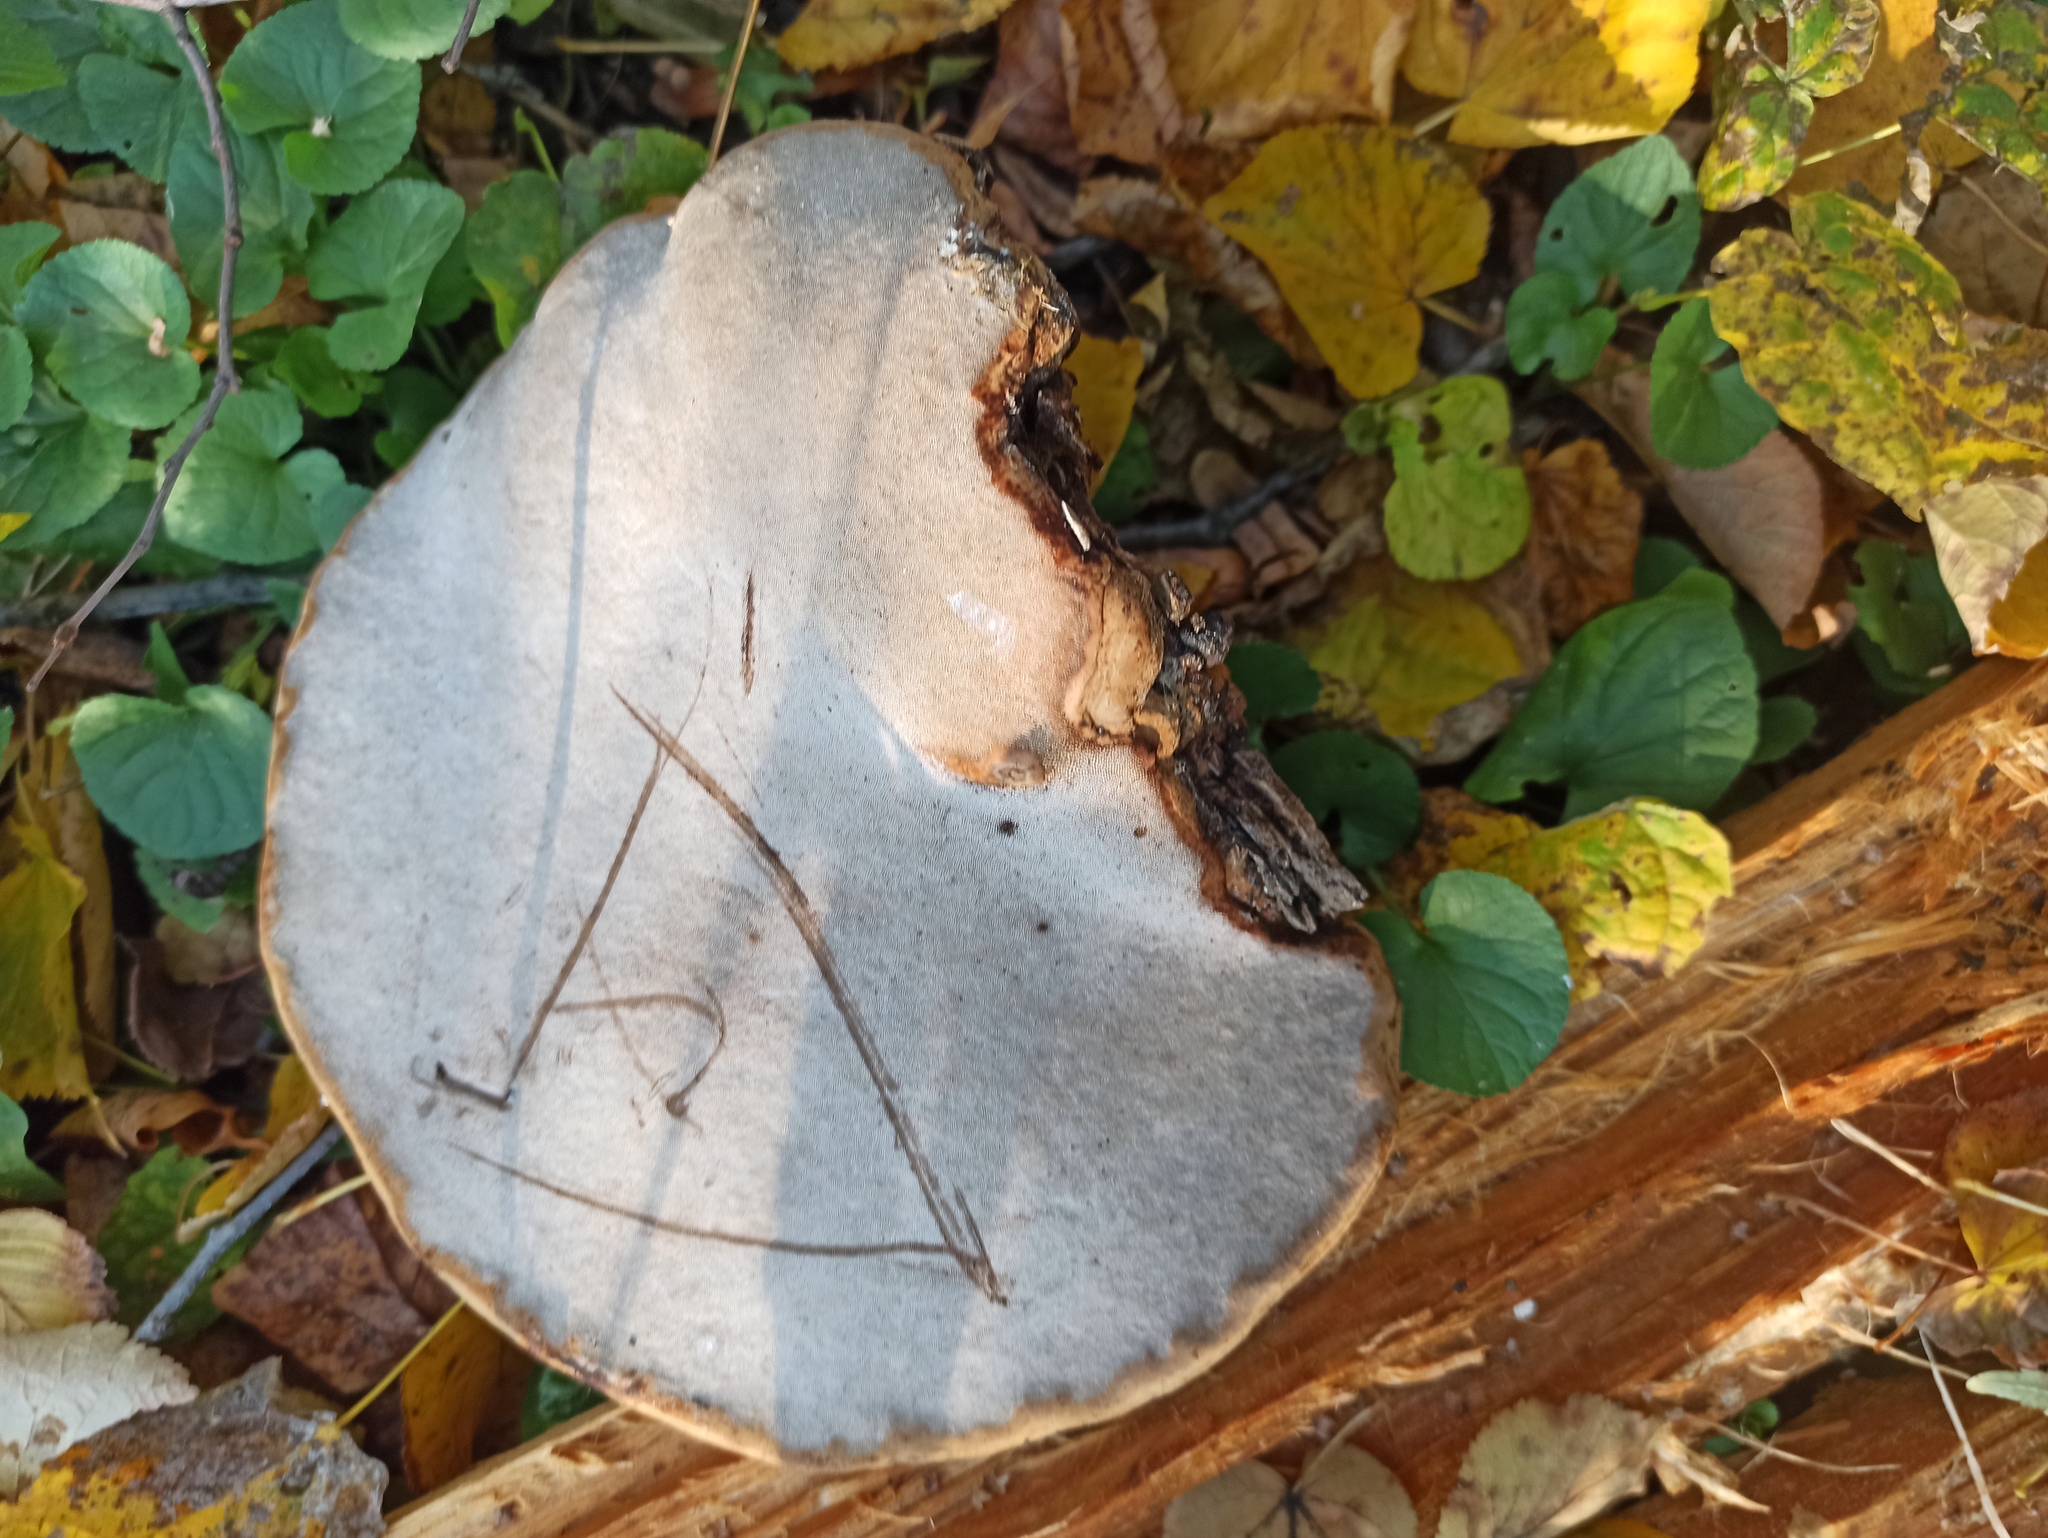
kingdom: Fungi
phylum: Basidiomycota
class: Agaricomycetes
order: Polyporales
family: Polyporaceae
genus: Fomes
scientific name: Fomes fomentarius
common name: Hoof fungus
